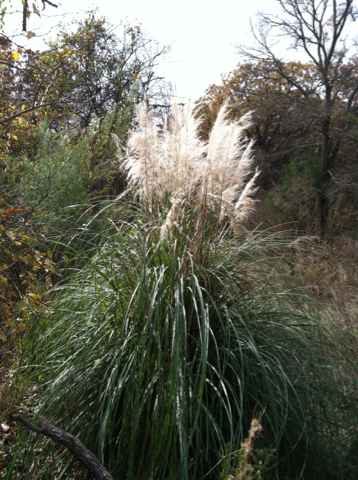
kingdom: Plantae
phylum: Tracheophyta
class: Liliopsida
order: Poales
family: Poaceae
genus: Cortaderia
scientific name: Cortaderia selloana
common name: Uruguayan pampas grass
